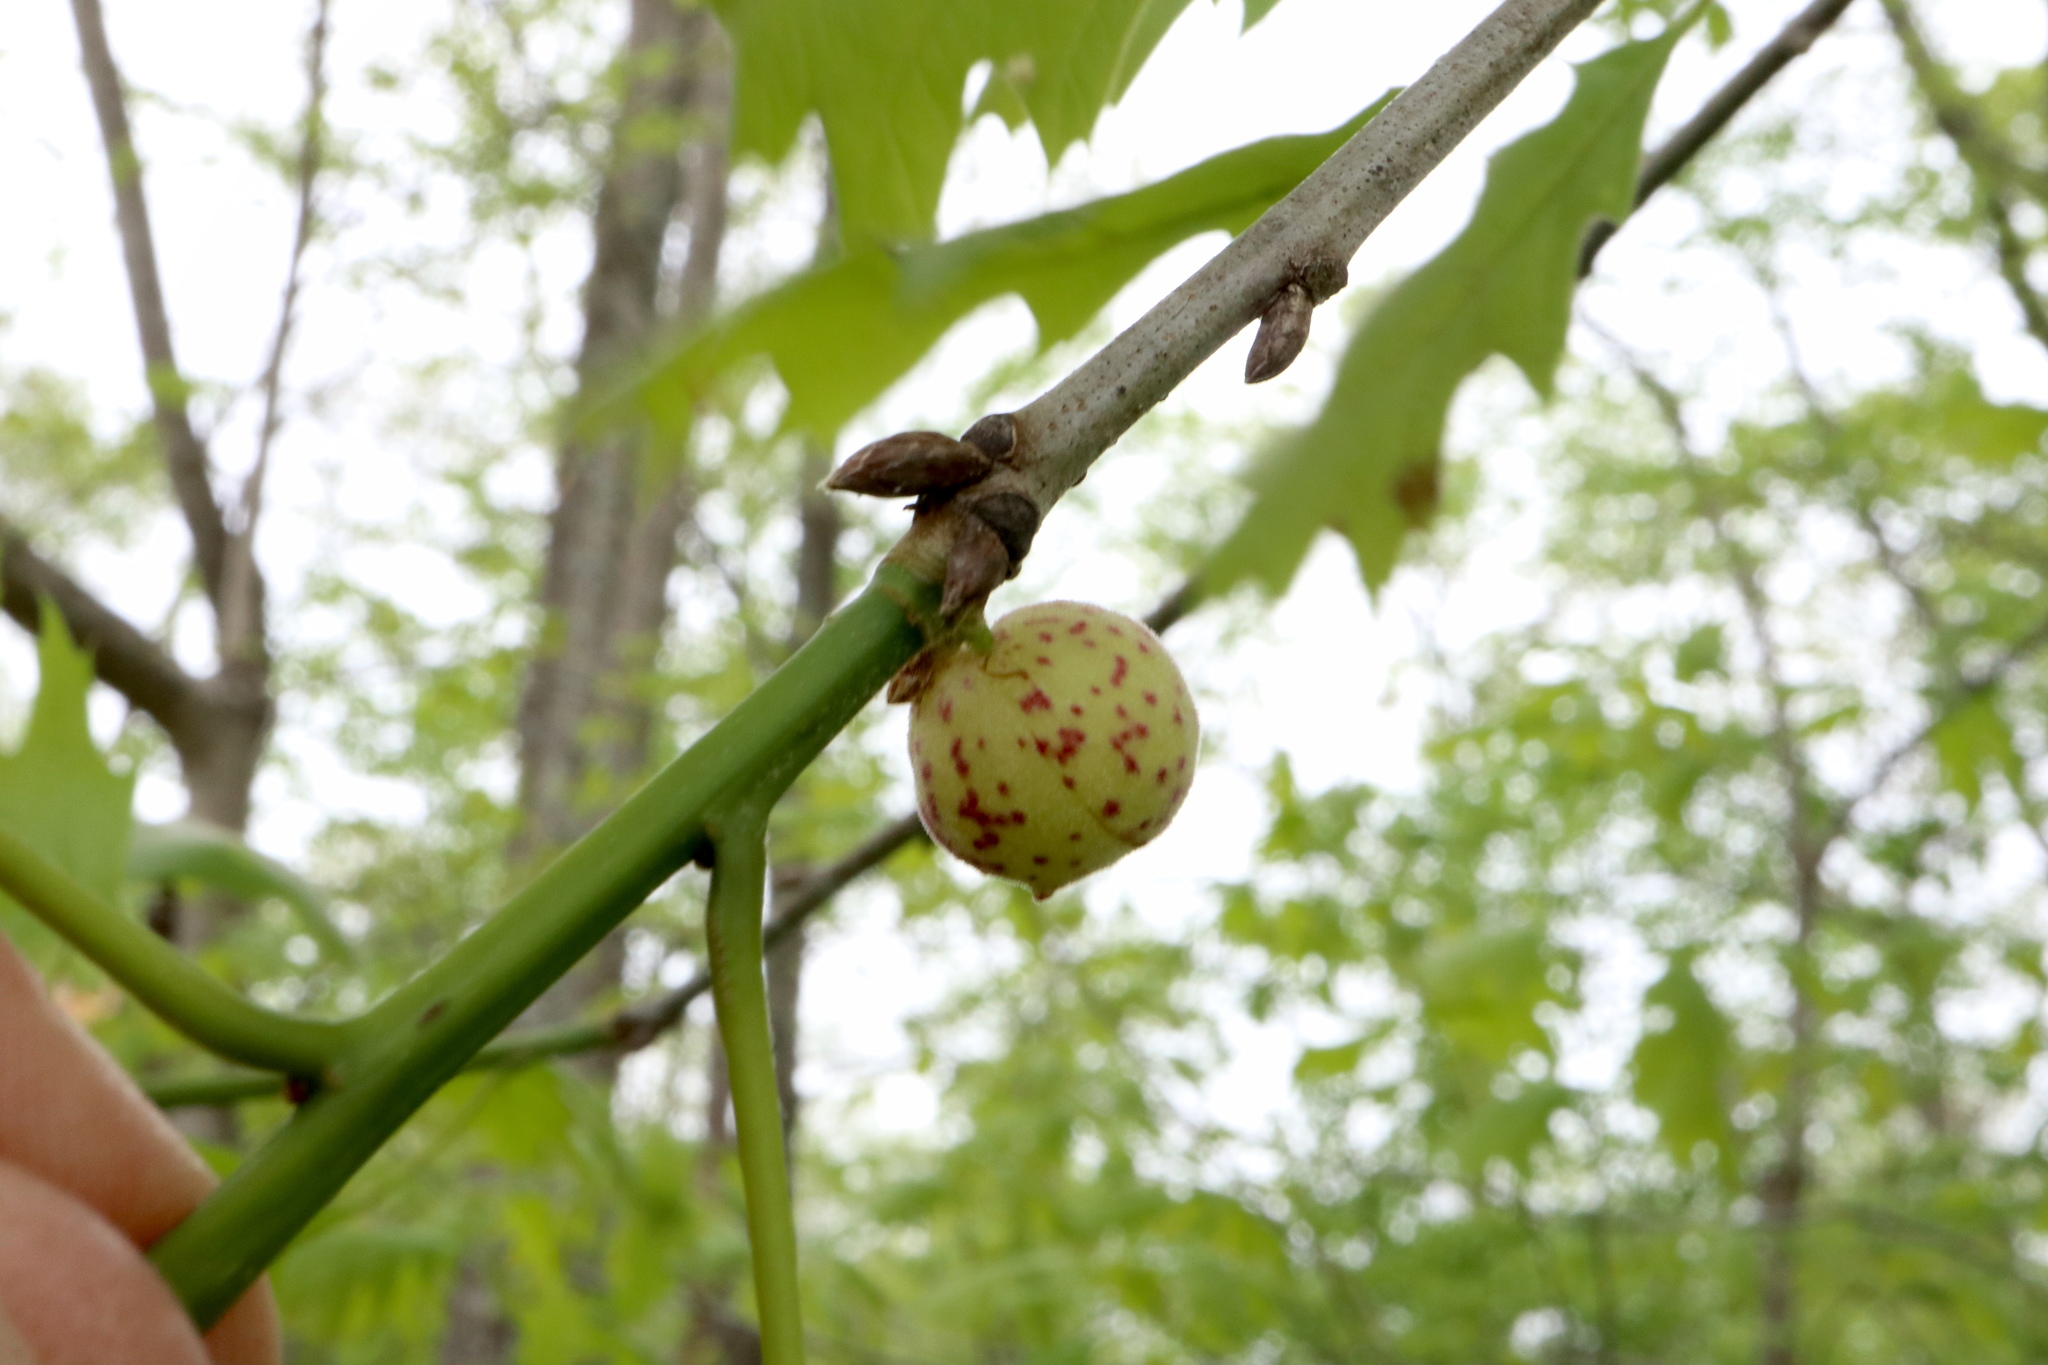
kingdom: Animalia
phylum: Arthropoda
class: Insecta
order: Hymenoptera
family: Cynipidae
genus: Amphibolips
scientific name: Amphibolips
